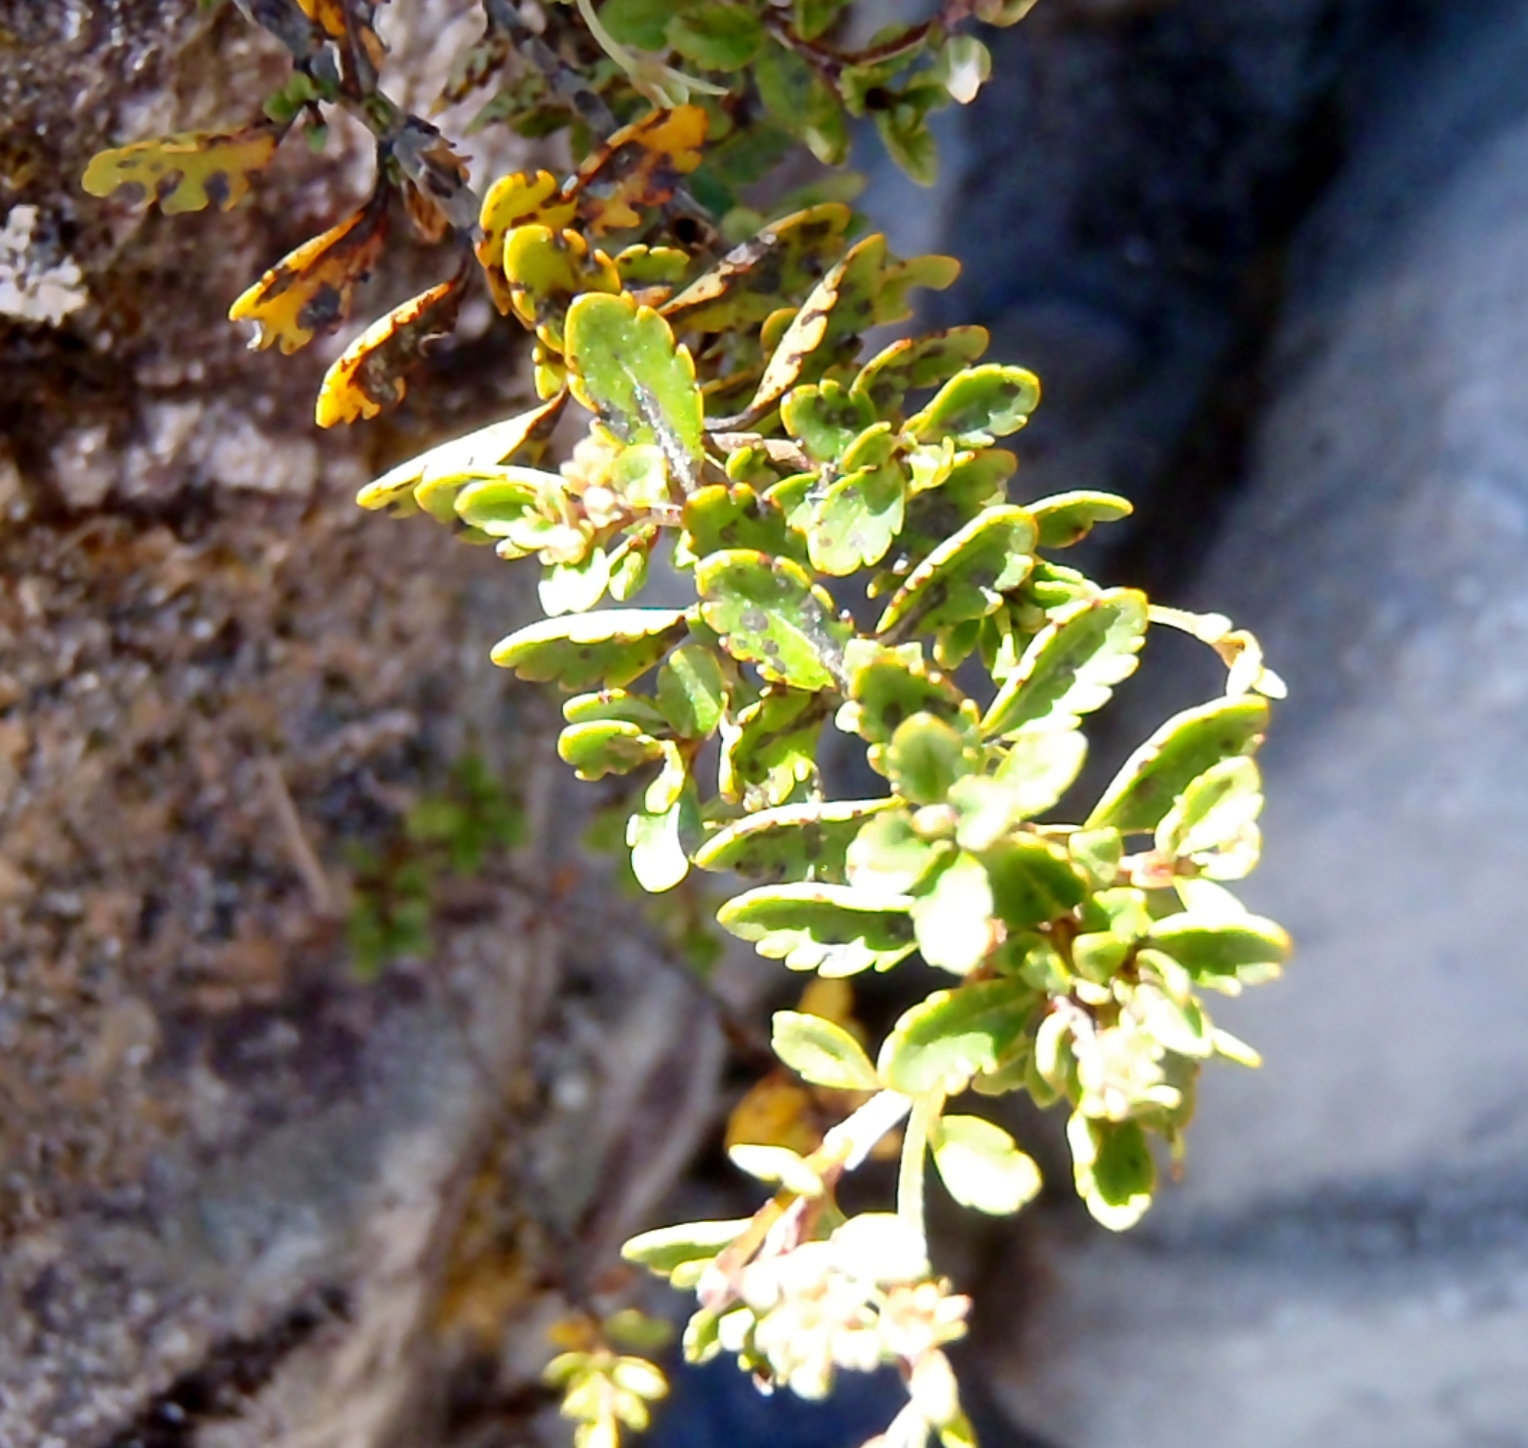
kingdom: Plantae
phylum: Tracheophyta
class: Magnoliopsida
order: Lamiales
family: Plantaginaceae
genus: Veronica
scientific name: Veronica lyallii
